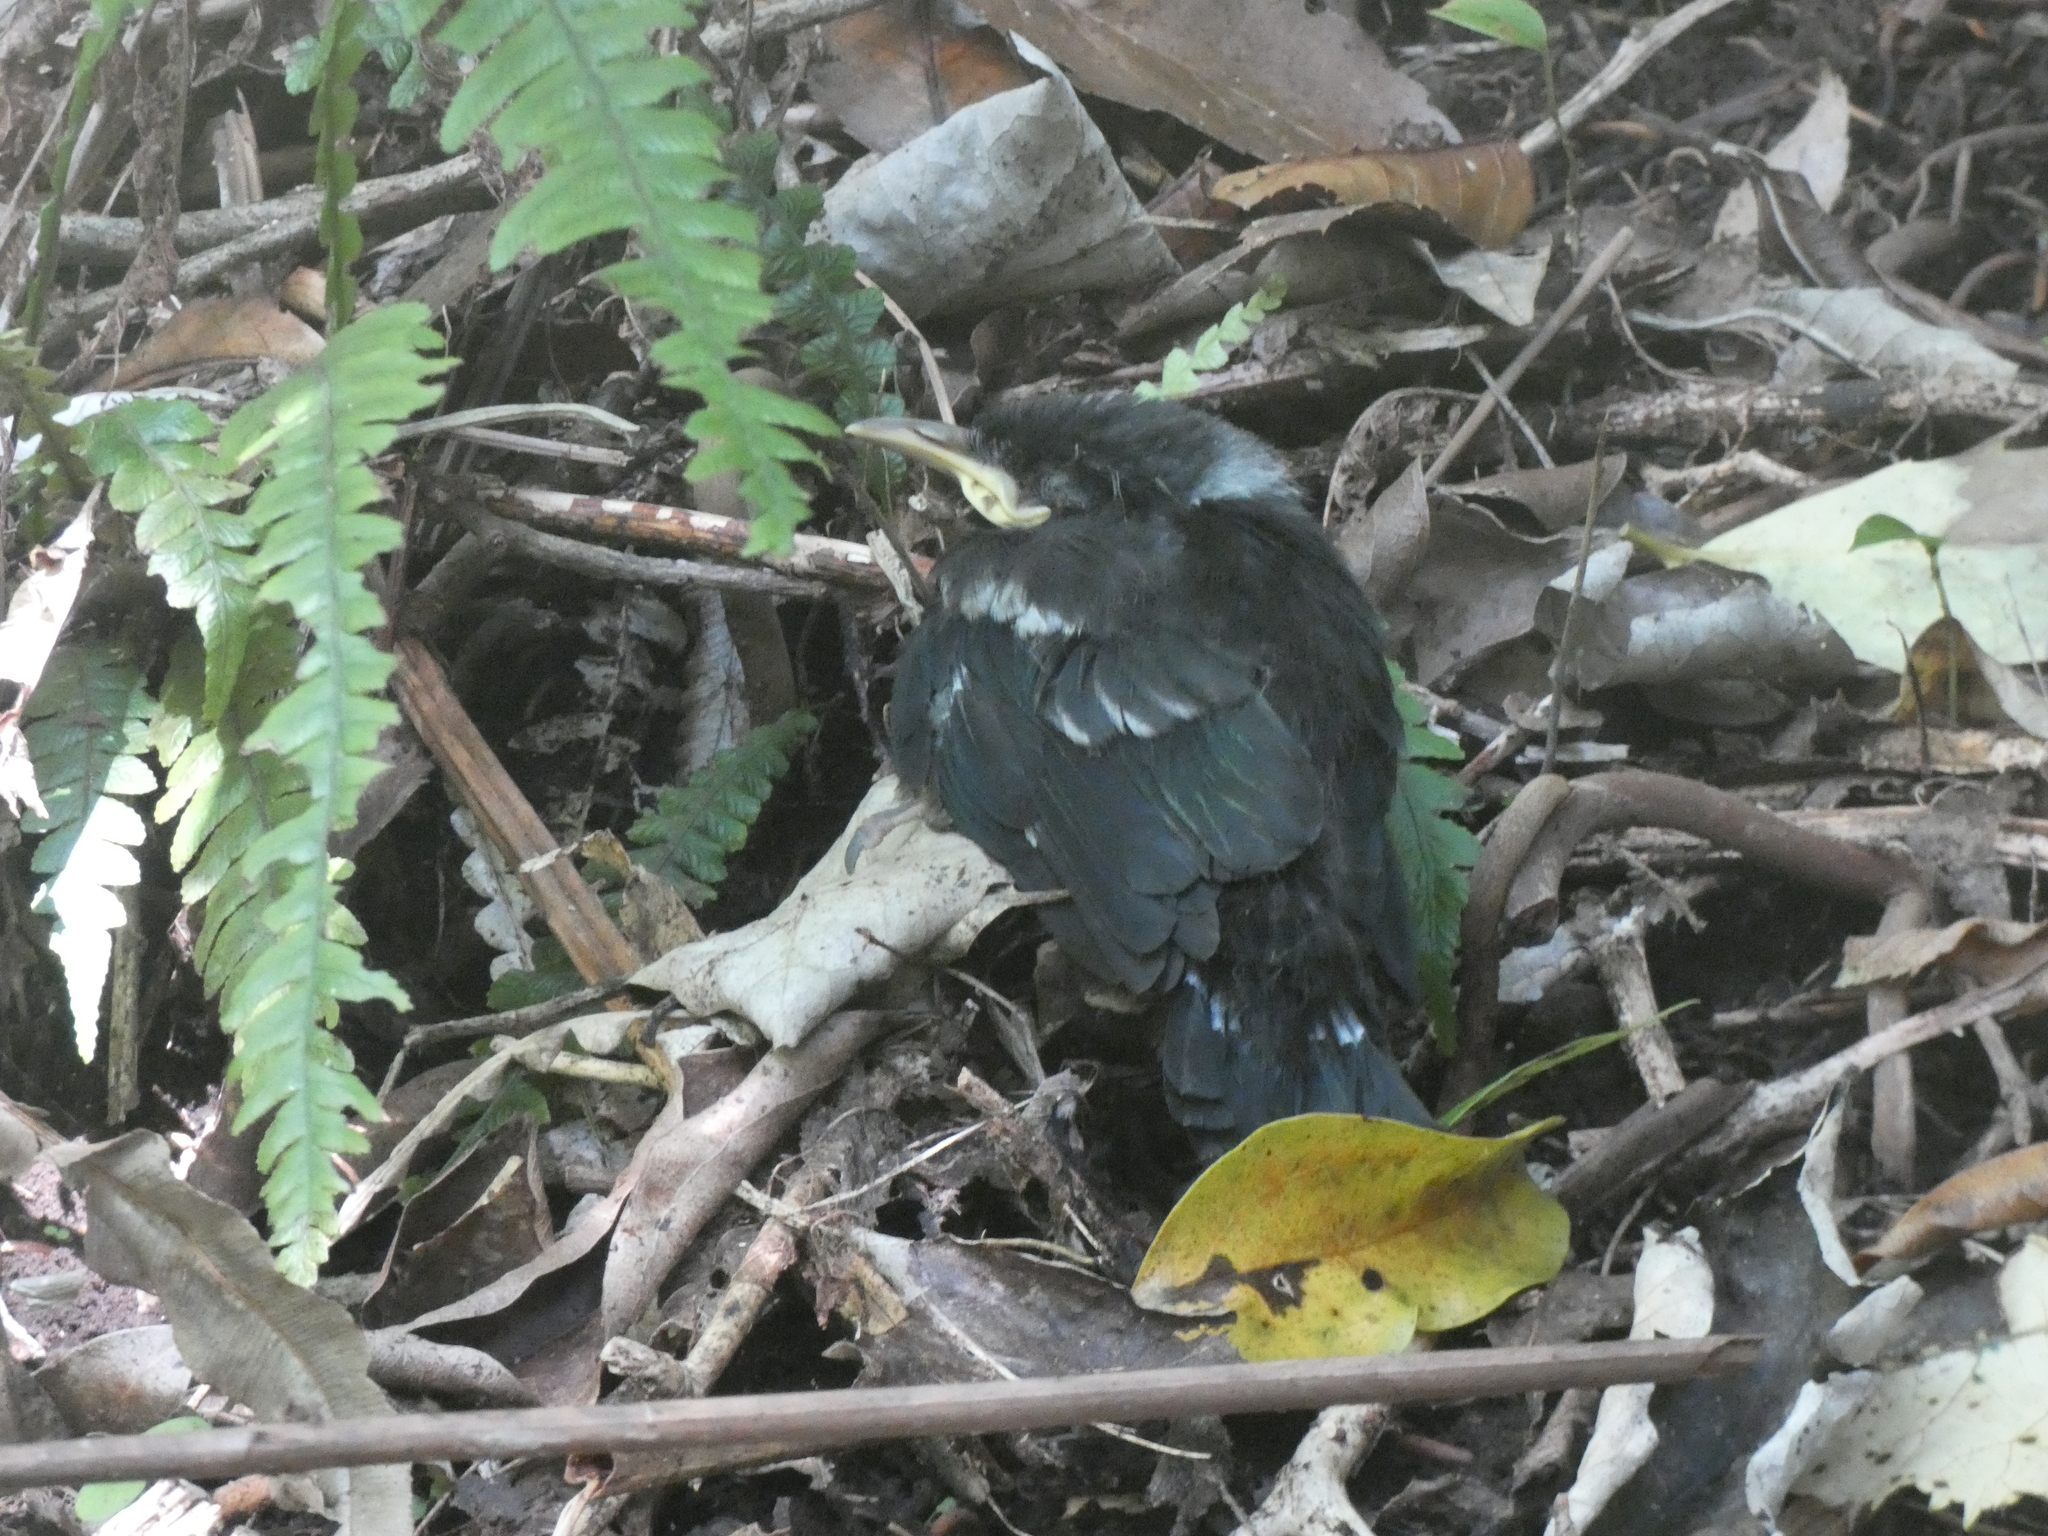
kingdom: Animalia
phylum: Chordata
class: Aves
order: Passeriformes
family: Meliphagidae
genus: Prosthemadera
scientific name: Prosthemadera novaeseelandiae
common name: Tui
